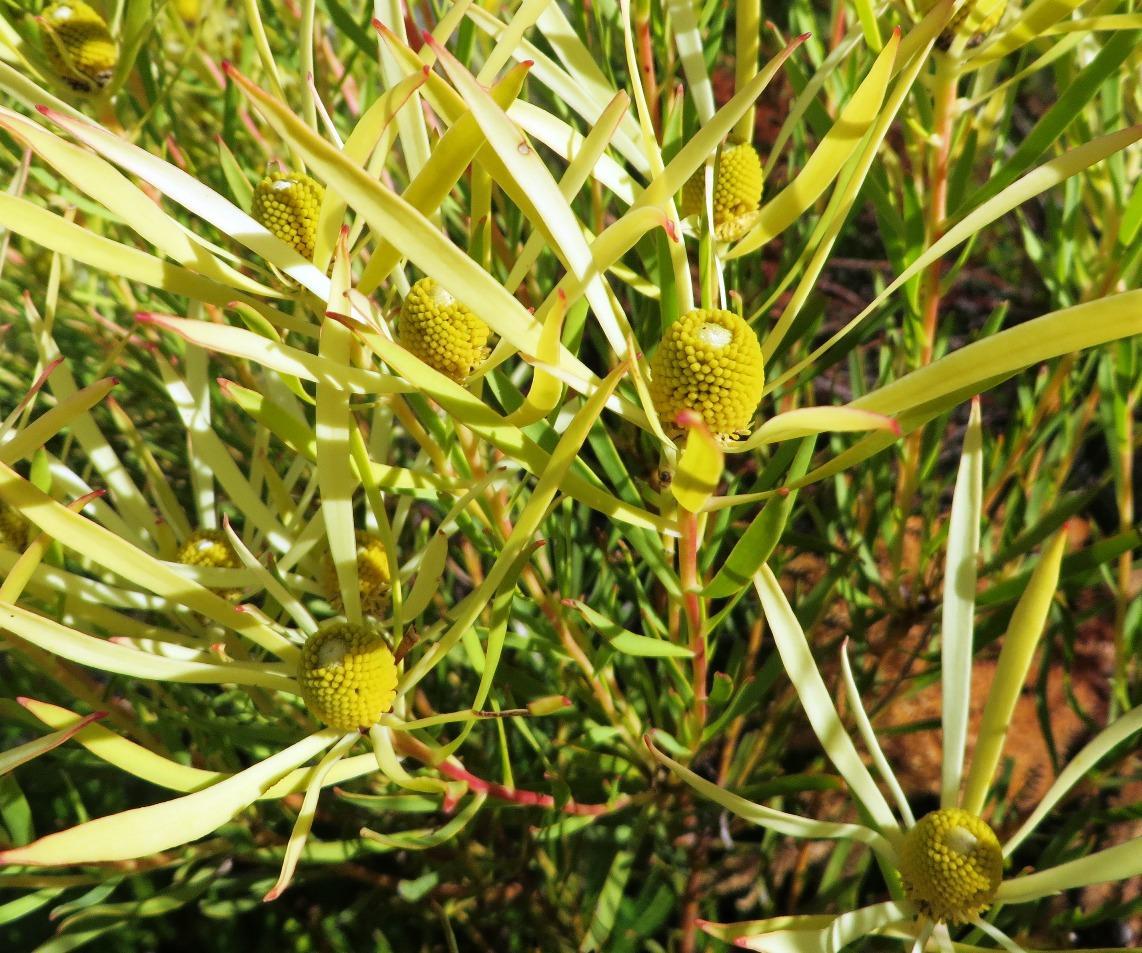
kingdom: Plantae
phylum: Tracheophyta
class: Magnoliopsida
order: Proteales
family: Proteaceae
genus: Leucadendron
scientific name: Leucadendron salignum
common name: Common sunshine conebush
